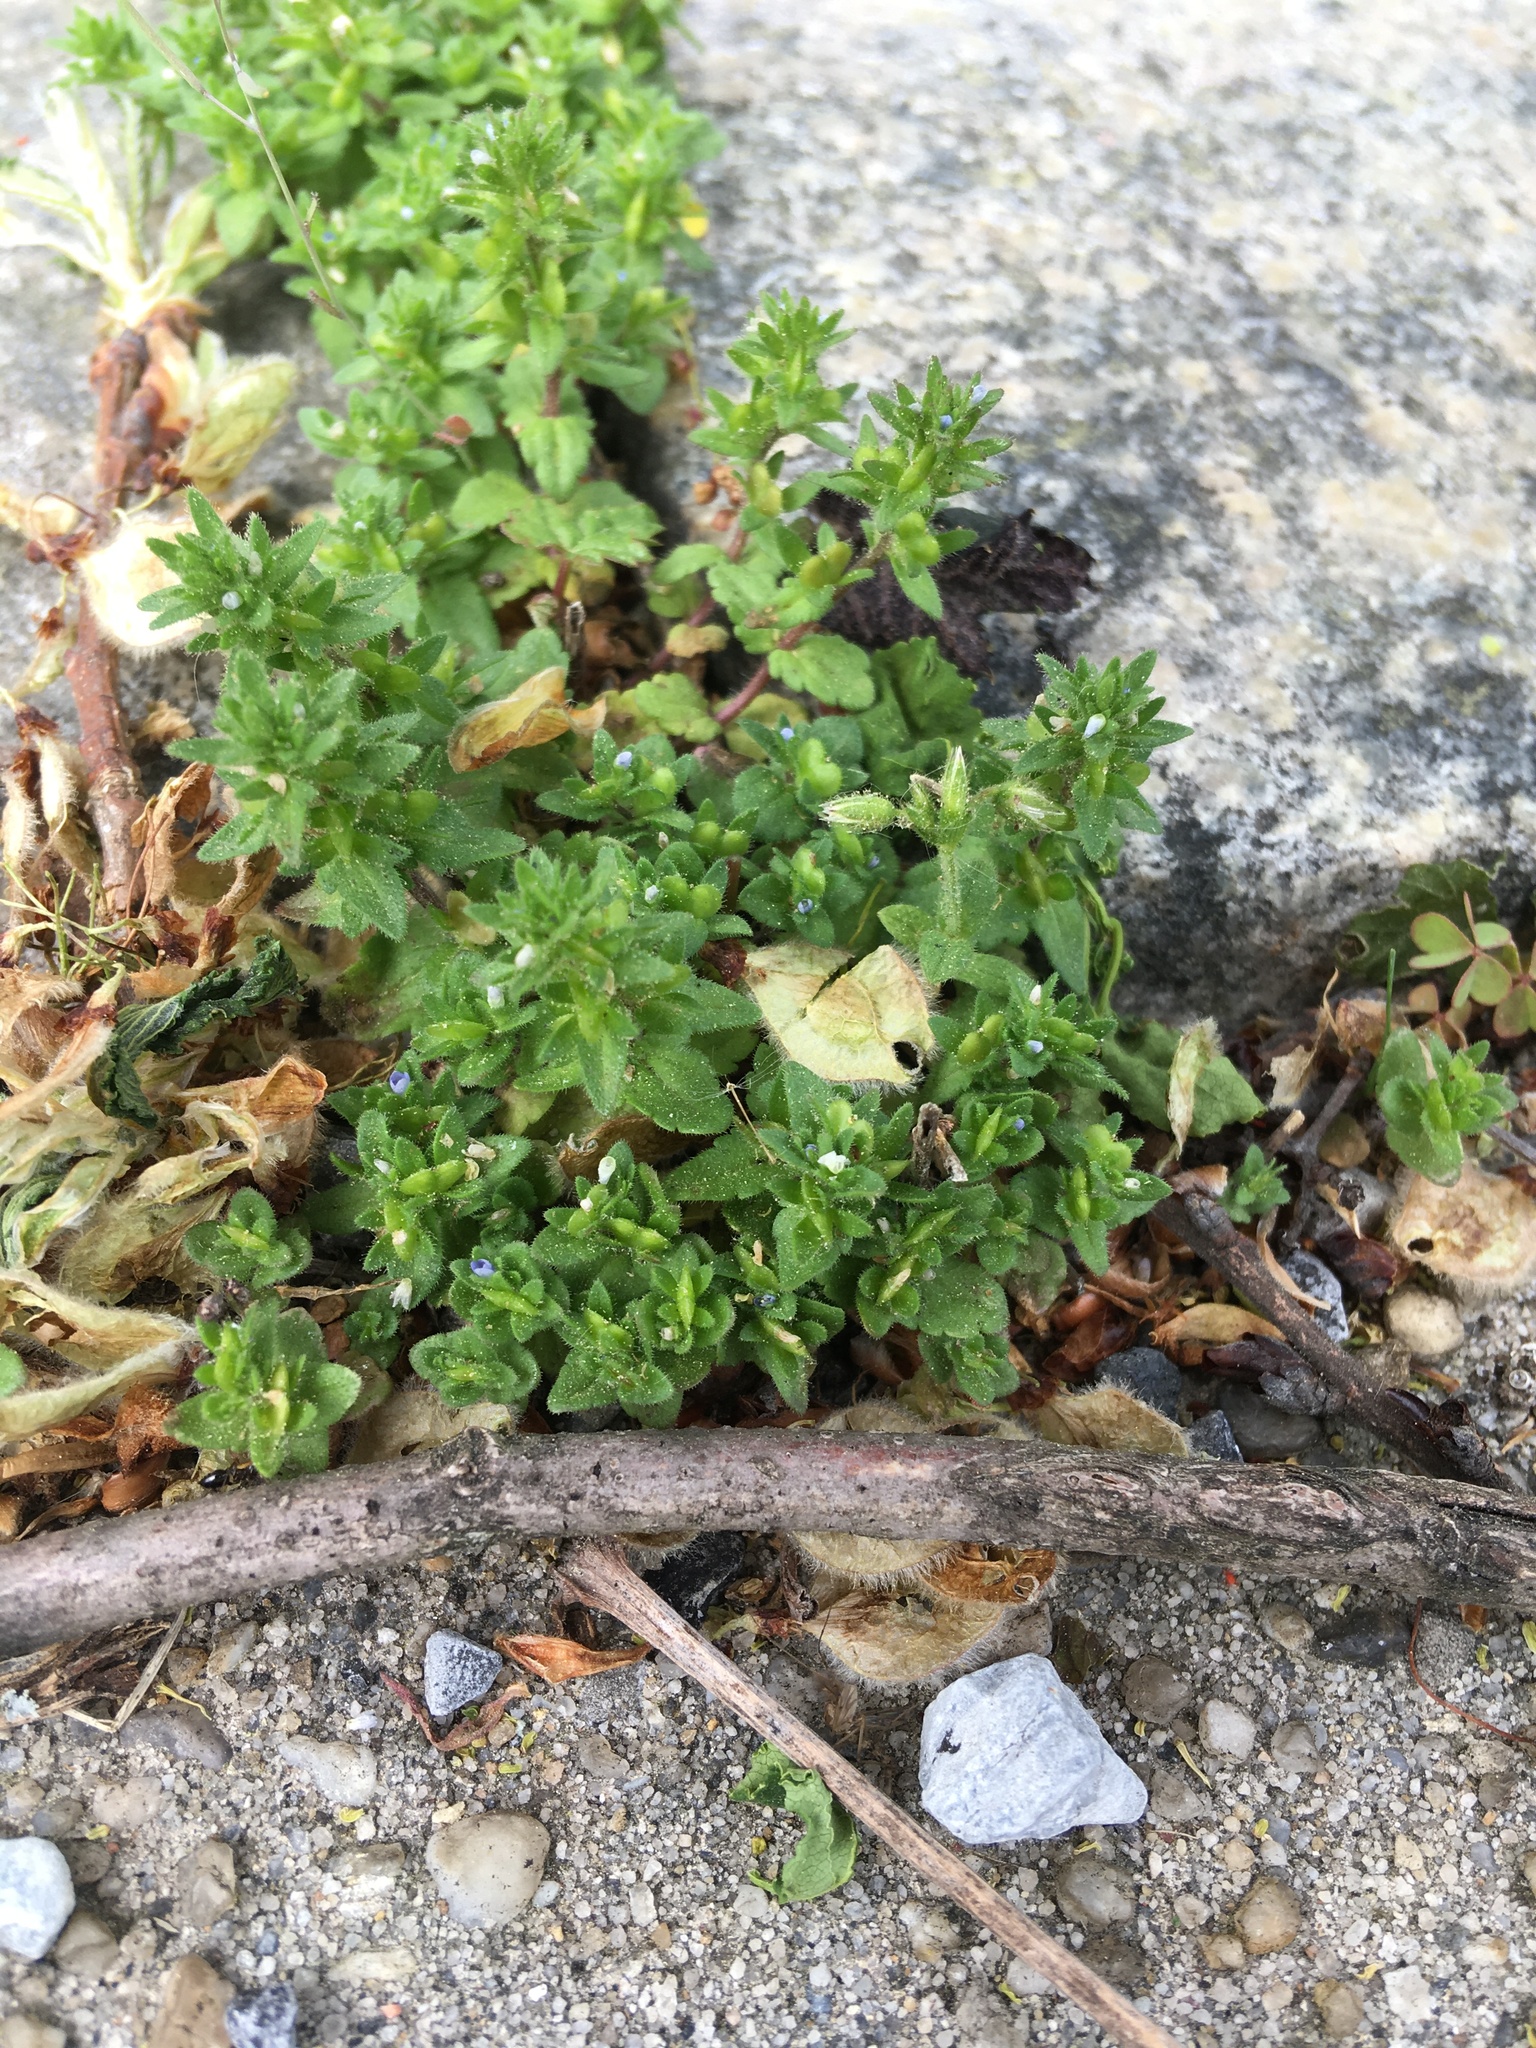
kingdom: Plantae
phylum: Tracheophyta
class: Magnoliopsida
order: Lamiales
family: Plantaginaceae
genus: Veronica
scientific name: Veronica arvensis
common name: Corn speedwell
